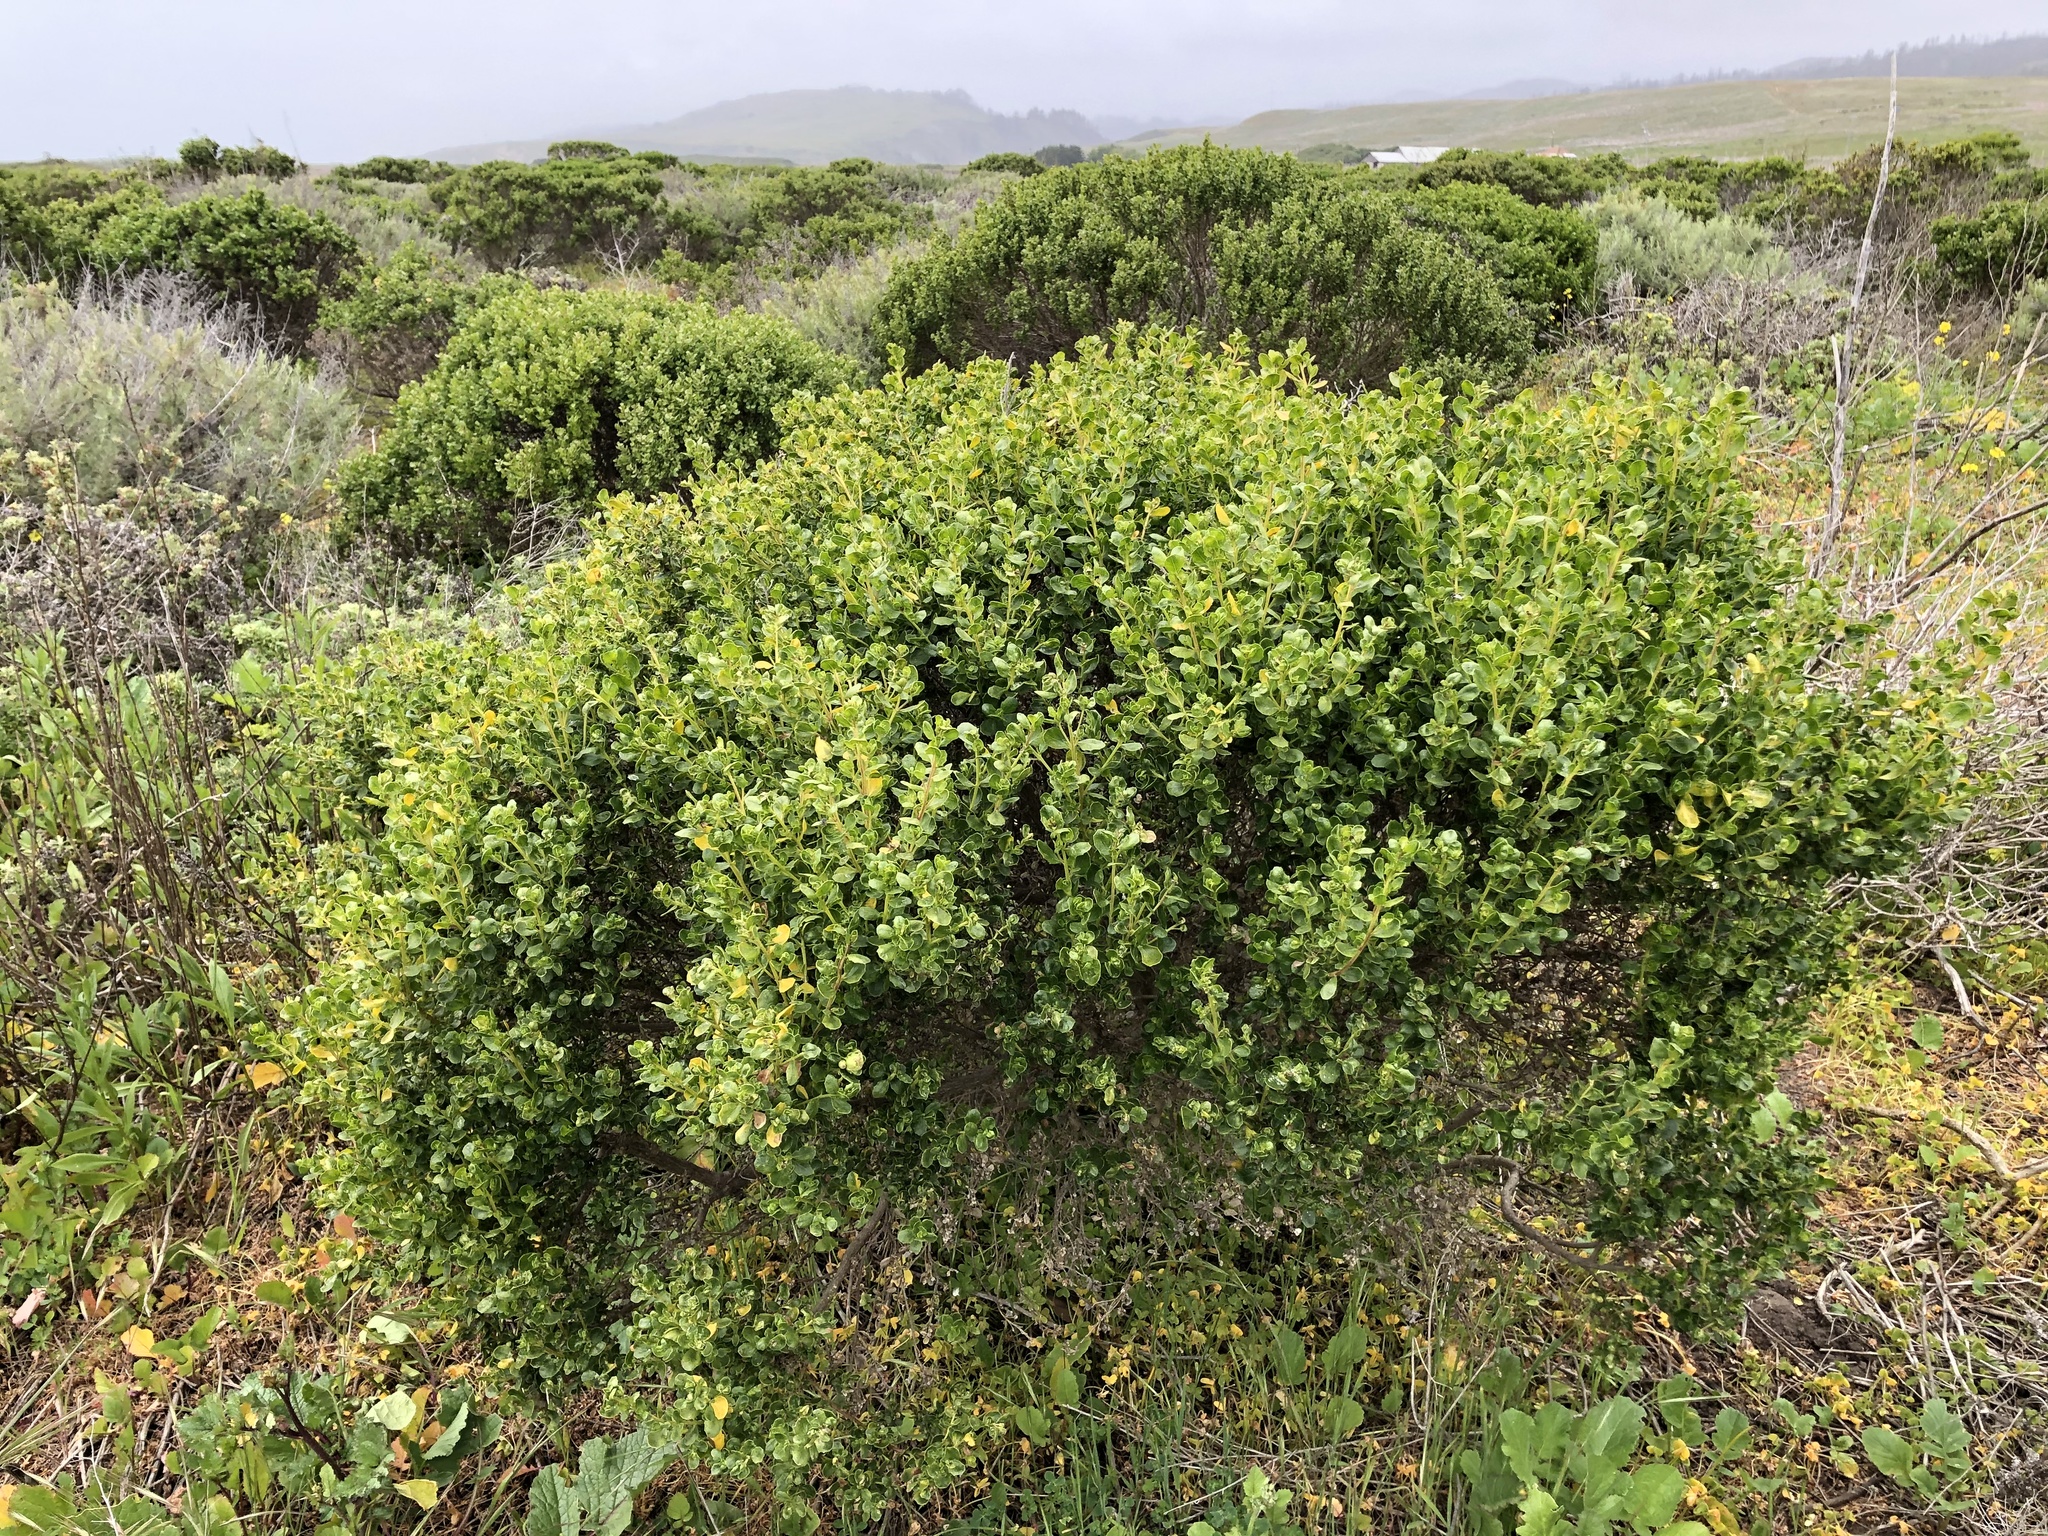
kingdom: Plantae
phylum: Tracheophyta
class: Magnoliopsida
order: Asterales
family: Asteraceae
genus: Baccharis
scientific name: Baccharis pilularis
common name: Coyotebrush
